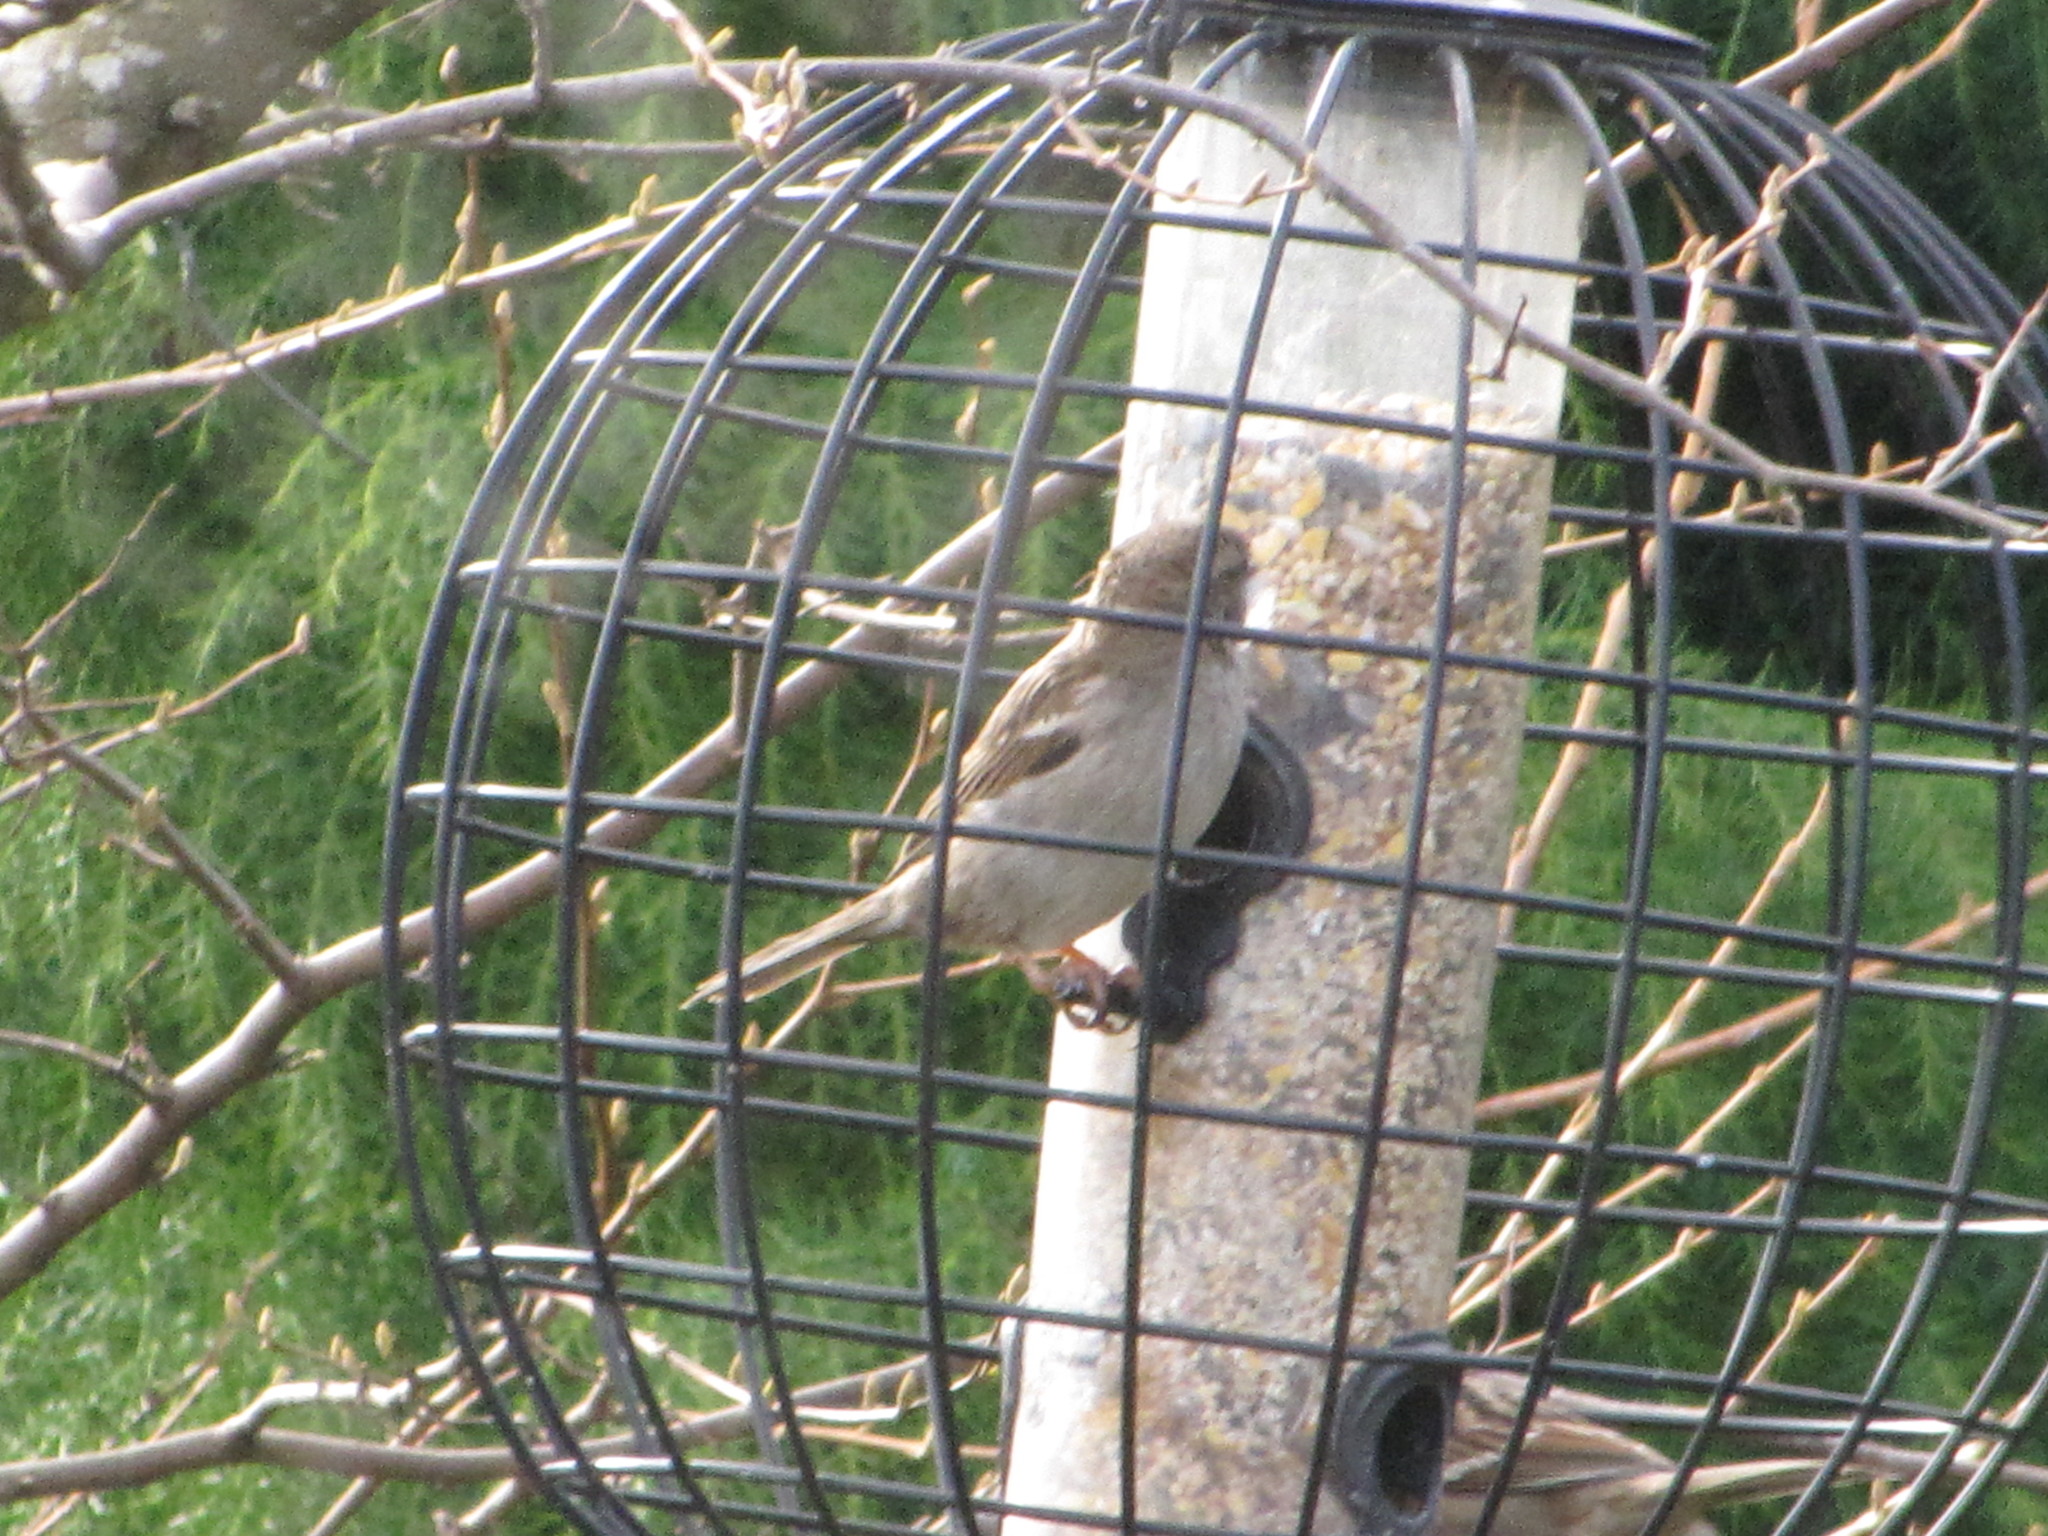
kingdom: Animalia
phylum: Chordata
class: Aves
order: Passeriformes
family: Passeridae
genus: Passer
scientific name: Passer domesticus
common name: House sparrow
